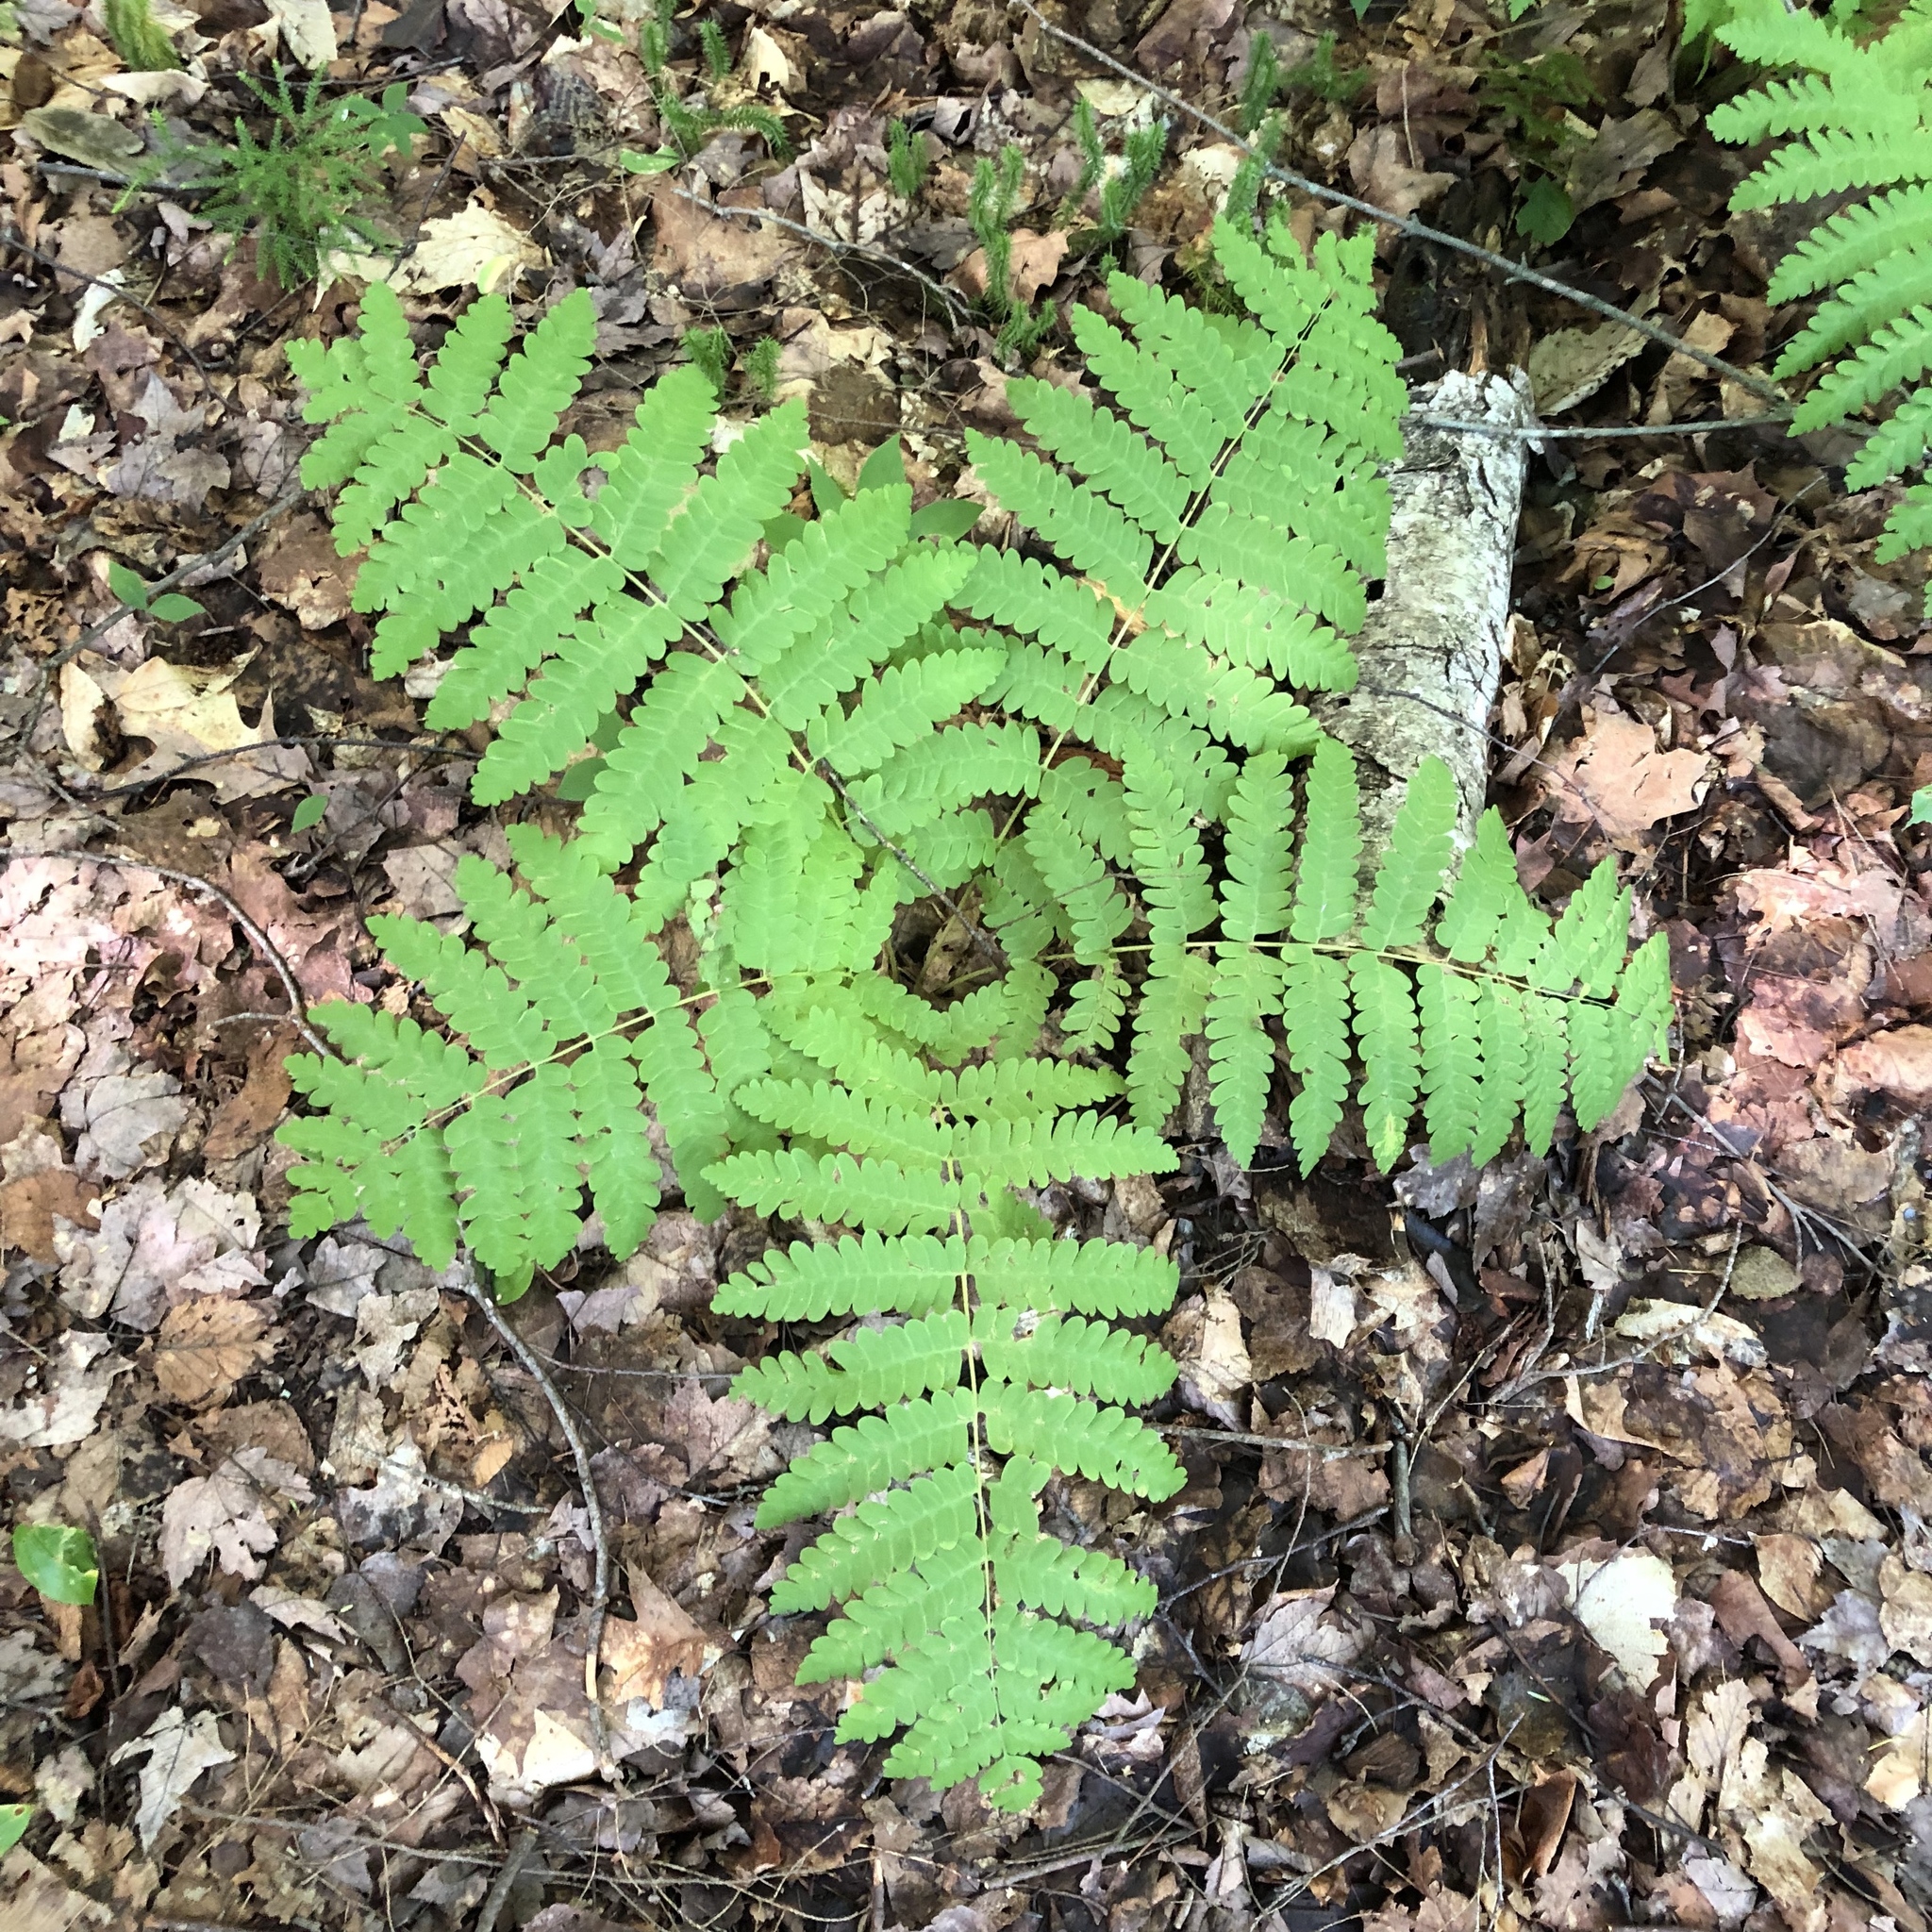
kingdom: Plantae
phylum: Tracheophyta
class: Polypodiopsida
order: Osmundales
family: Osmundaceae
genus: Claytosmunda
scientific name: Claytosmunda claytoniana
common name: Clayton's fern
